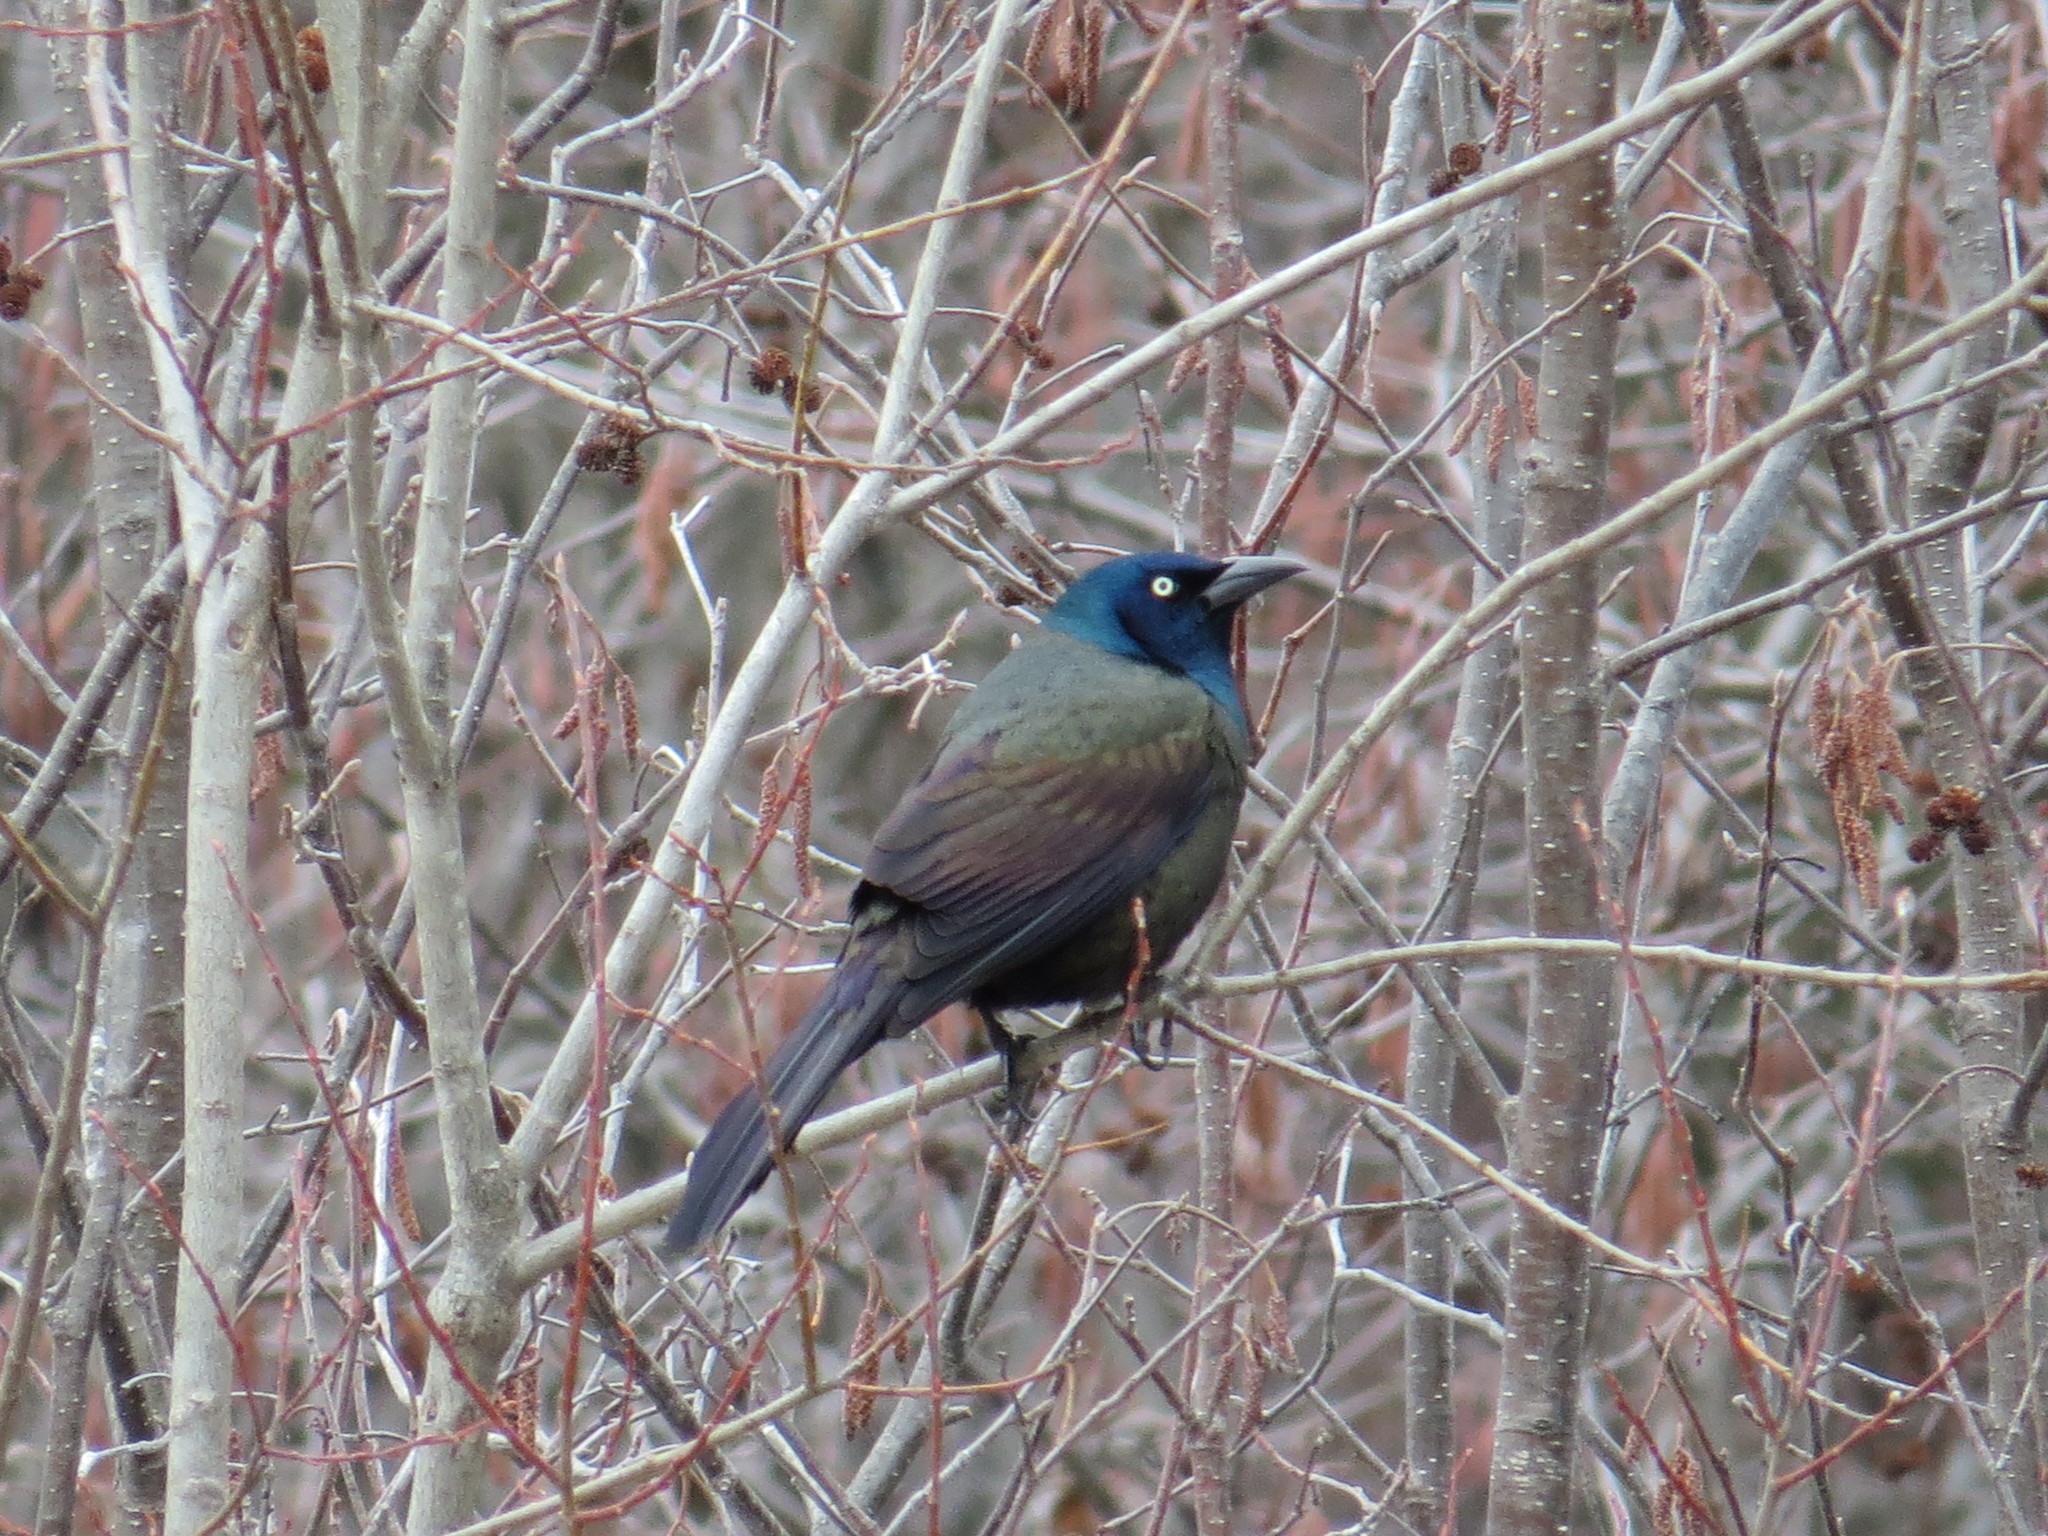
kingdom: Animalia
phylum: Chordata
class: Aves
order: Passeriformes
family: Icteridae
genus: Quiscalus
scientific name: Quiscalus quiscula
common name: Common grackle
